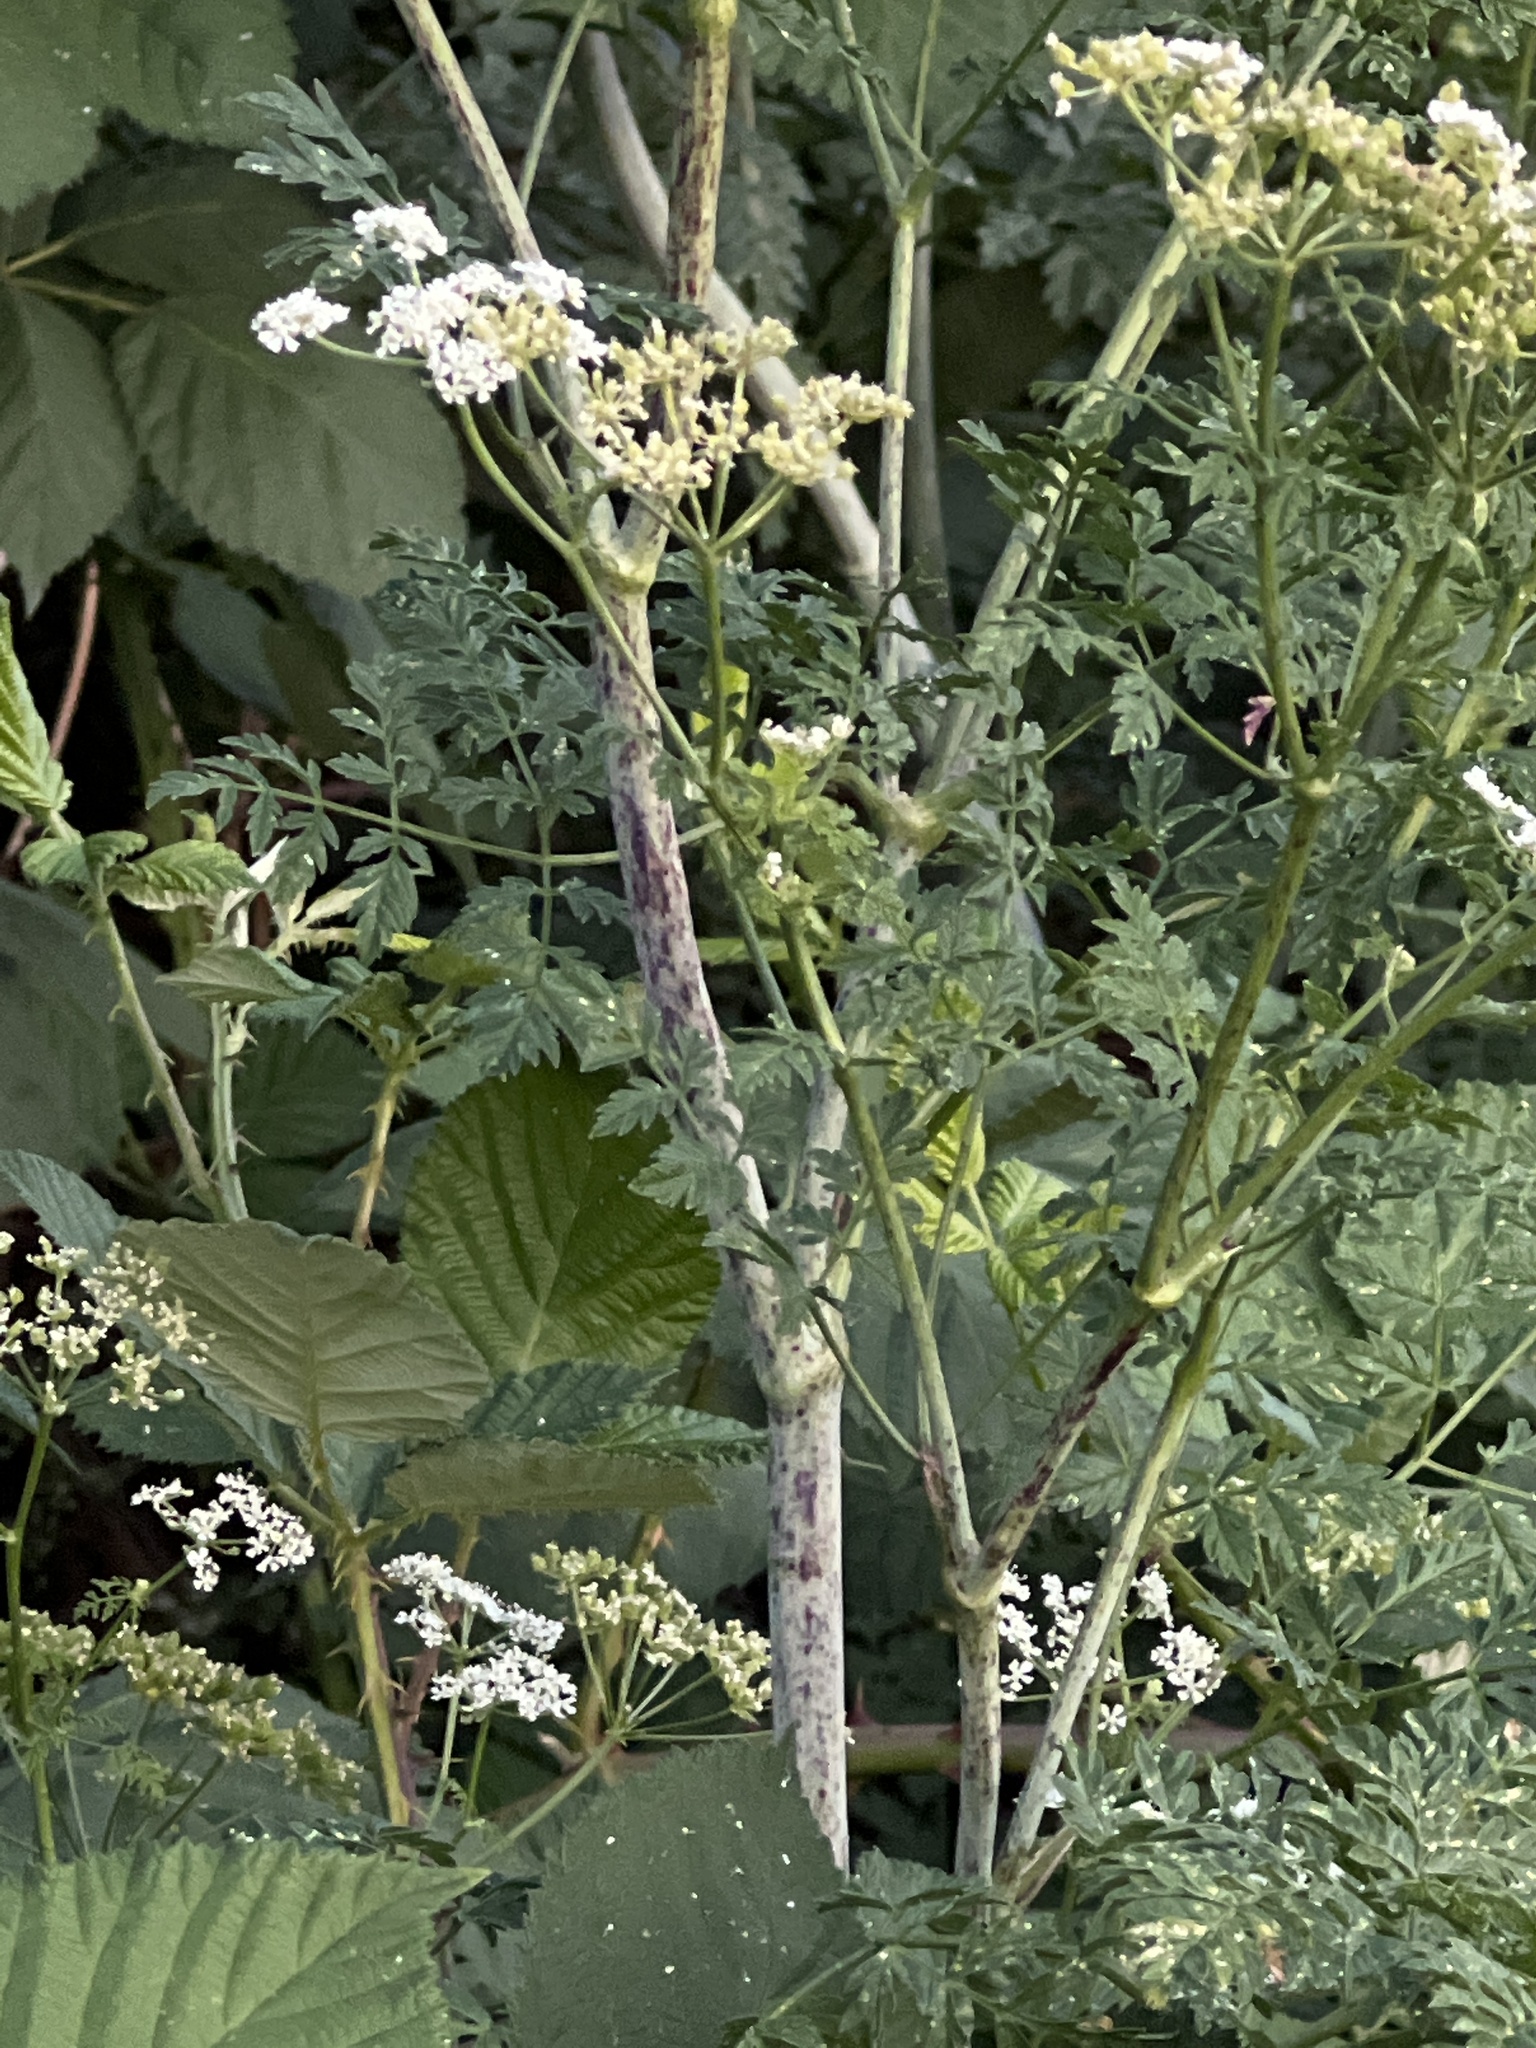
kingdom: Plantae
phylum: Tracheophyta
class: Magnoliopsida
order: Apiales
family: Apiaceae
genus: Conium
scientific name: Conium maculatum
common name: Hemlock
